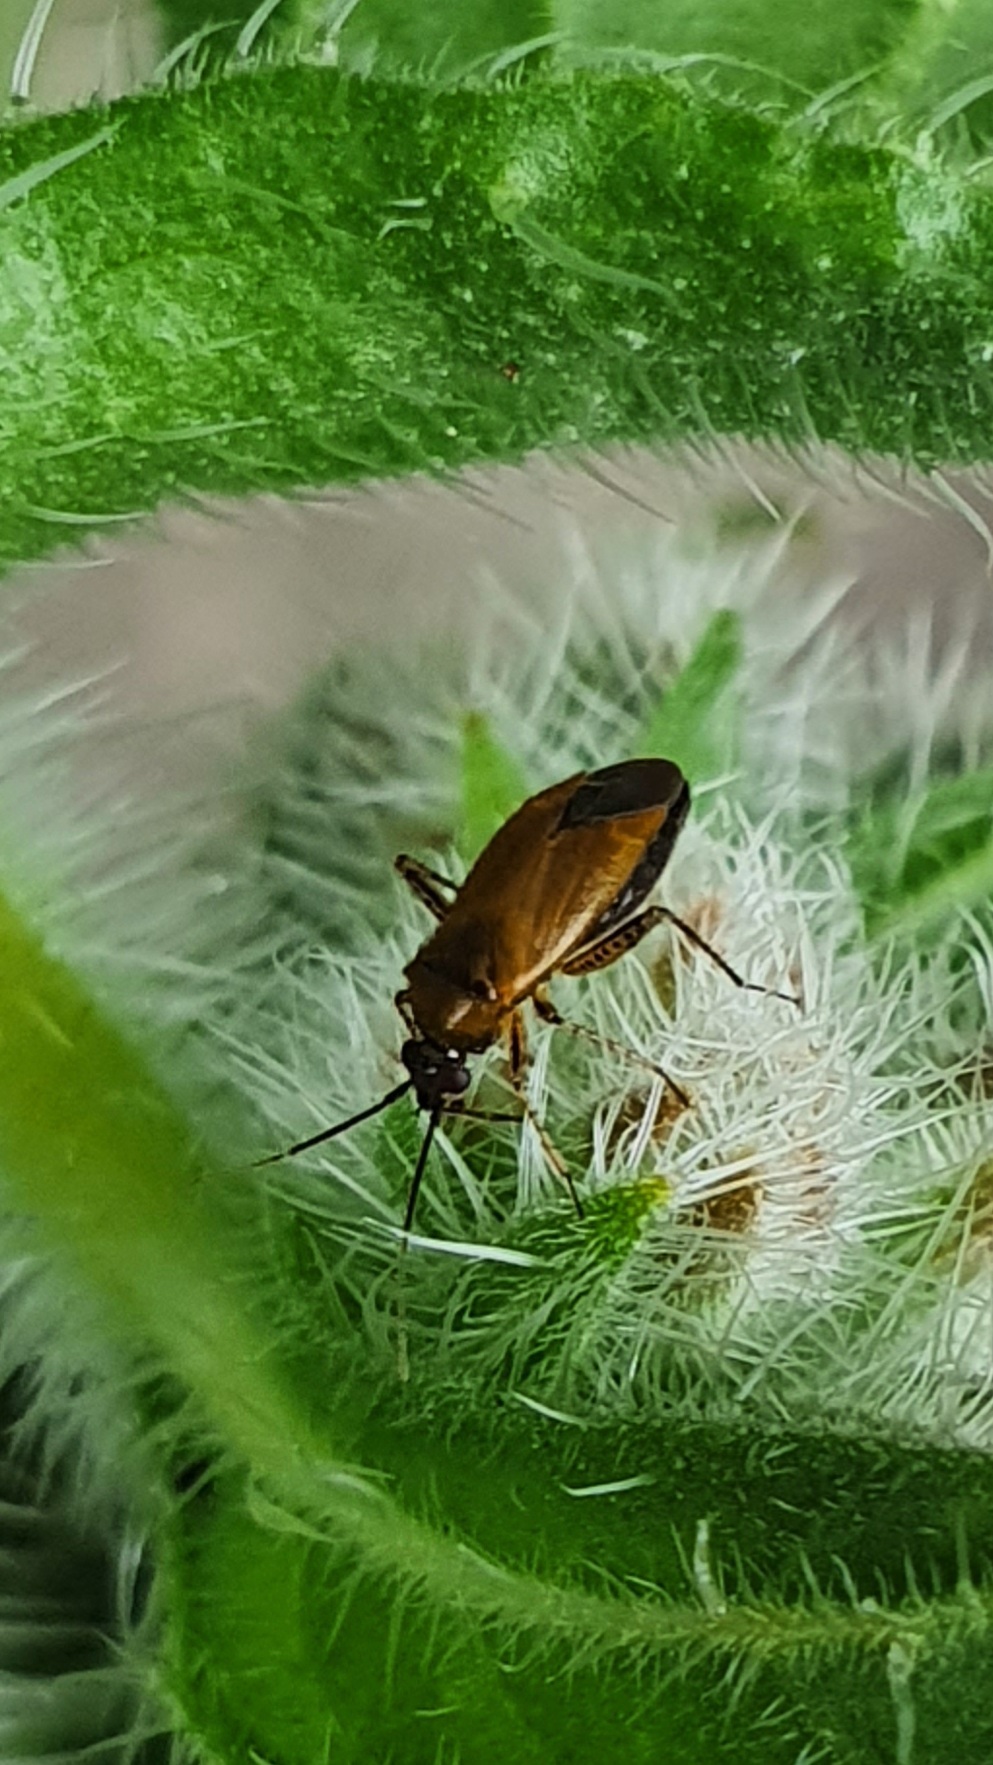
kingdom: Animalia
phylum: Arthropoda
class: Insecta
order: Hemiptera
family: Miridae
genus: Plagiognathus
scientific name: Plagiognathus arbustorum
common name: Plant bug
